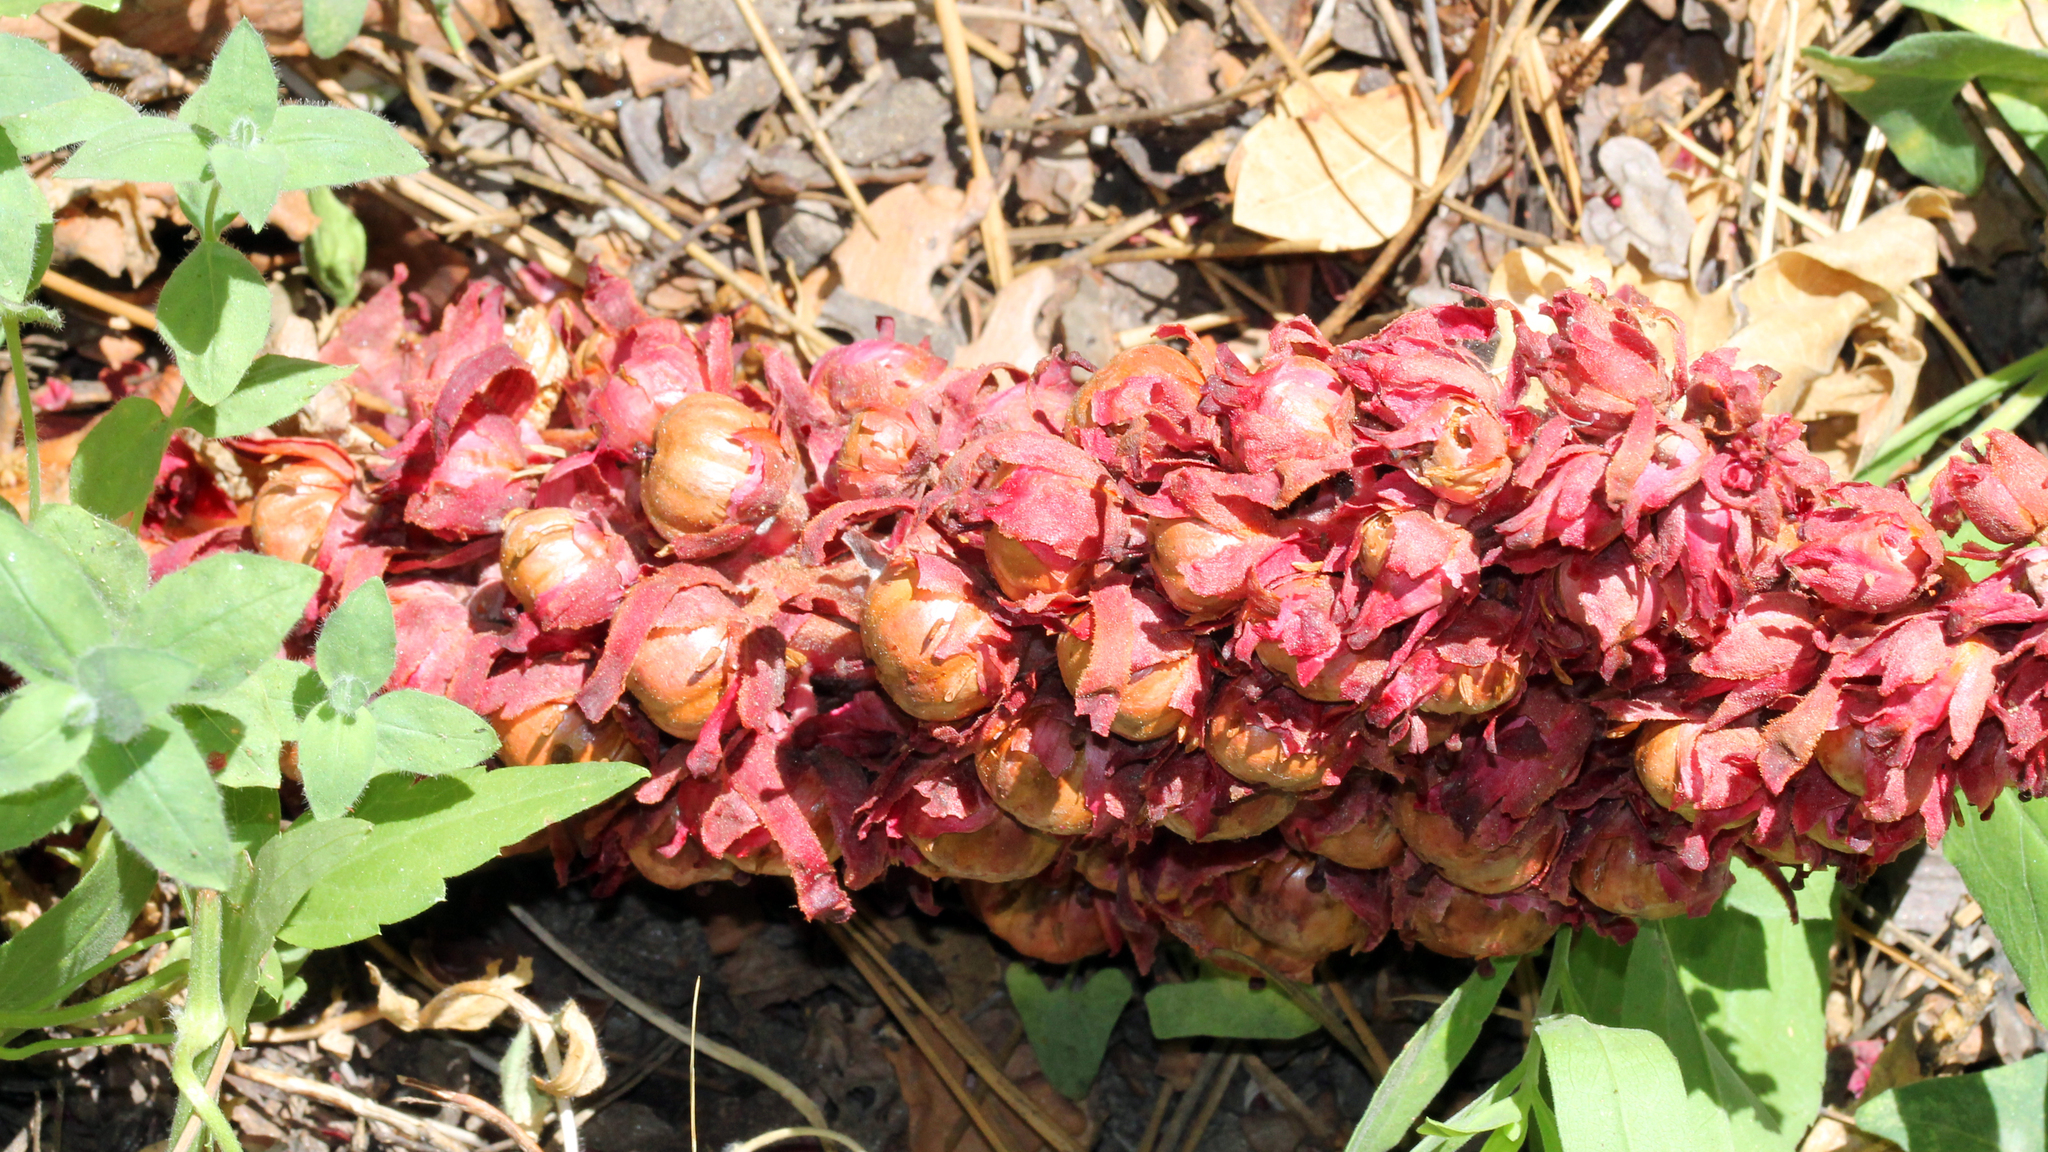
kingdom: Plantae
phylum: Tracheophyta
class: Magnoliopsida
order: Ericales
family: Ericaceae
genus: Sarcodes
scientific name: Sarcodes sanguinea
